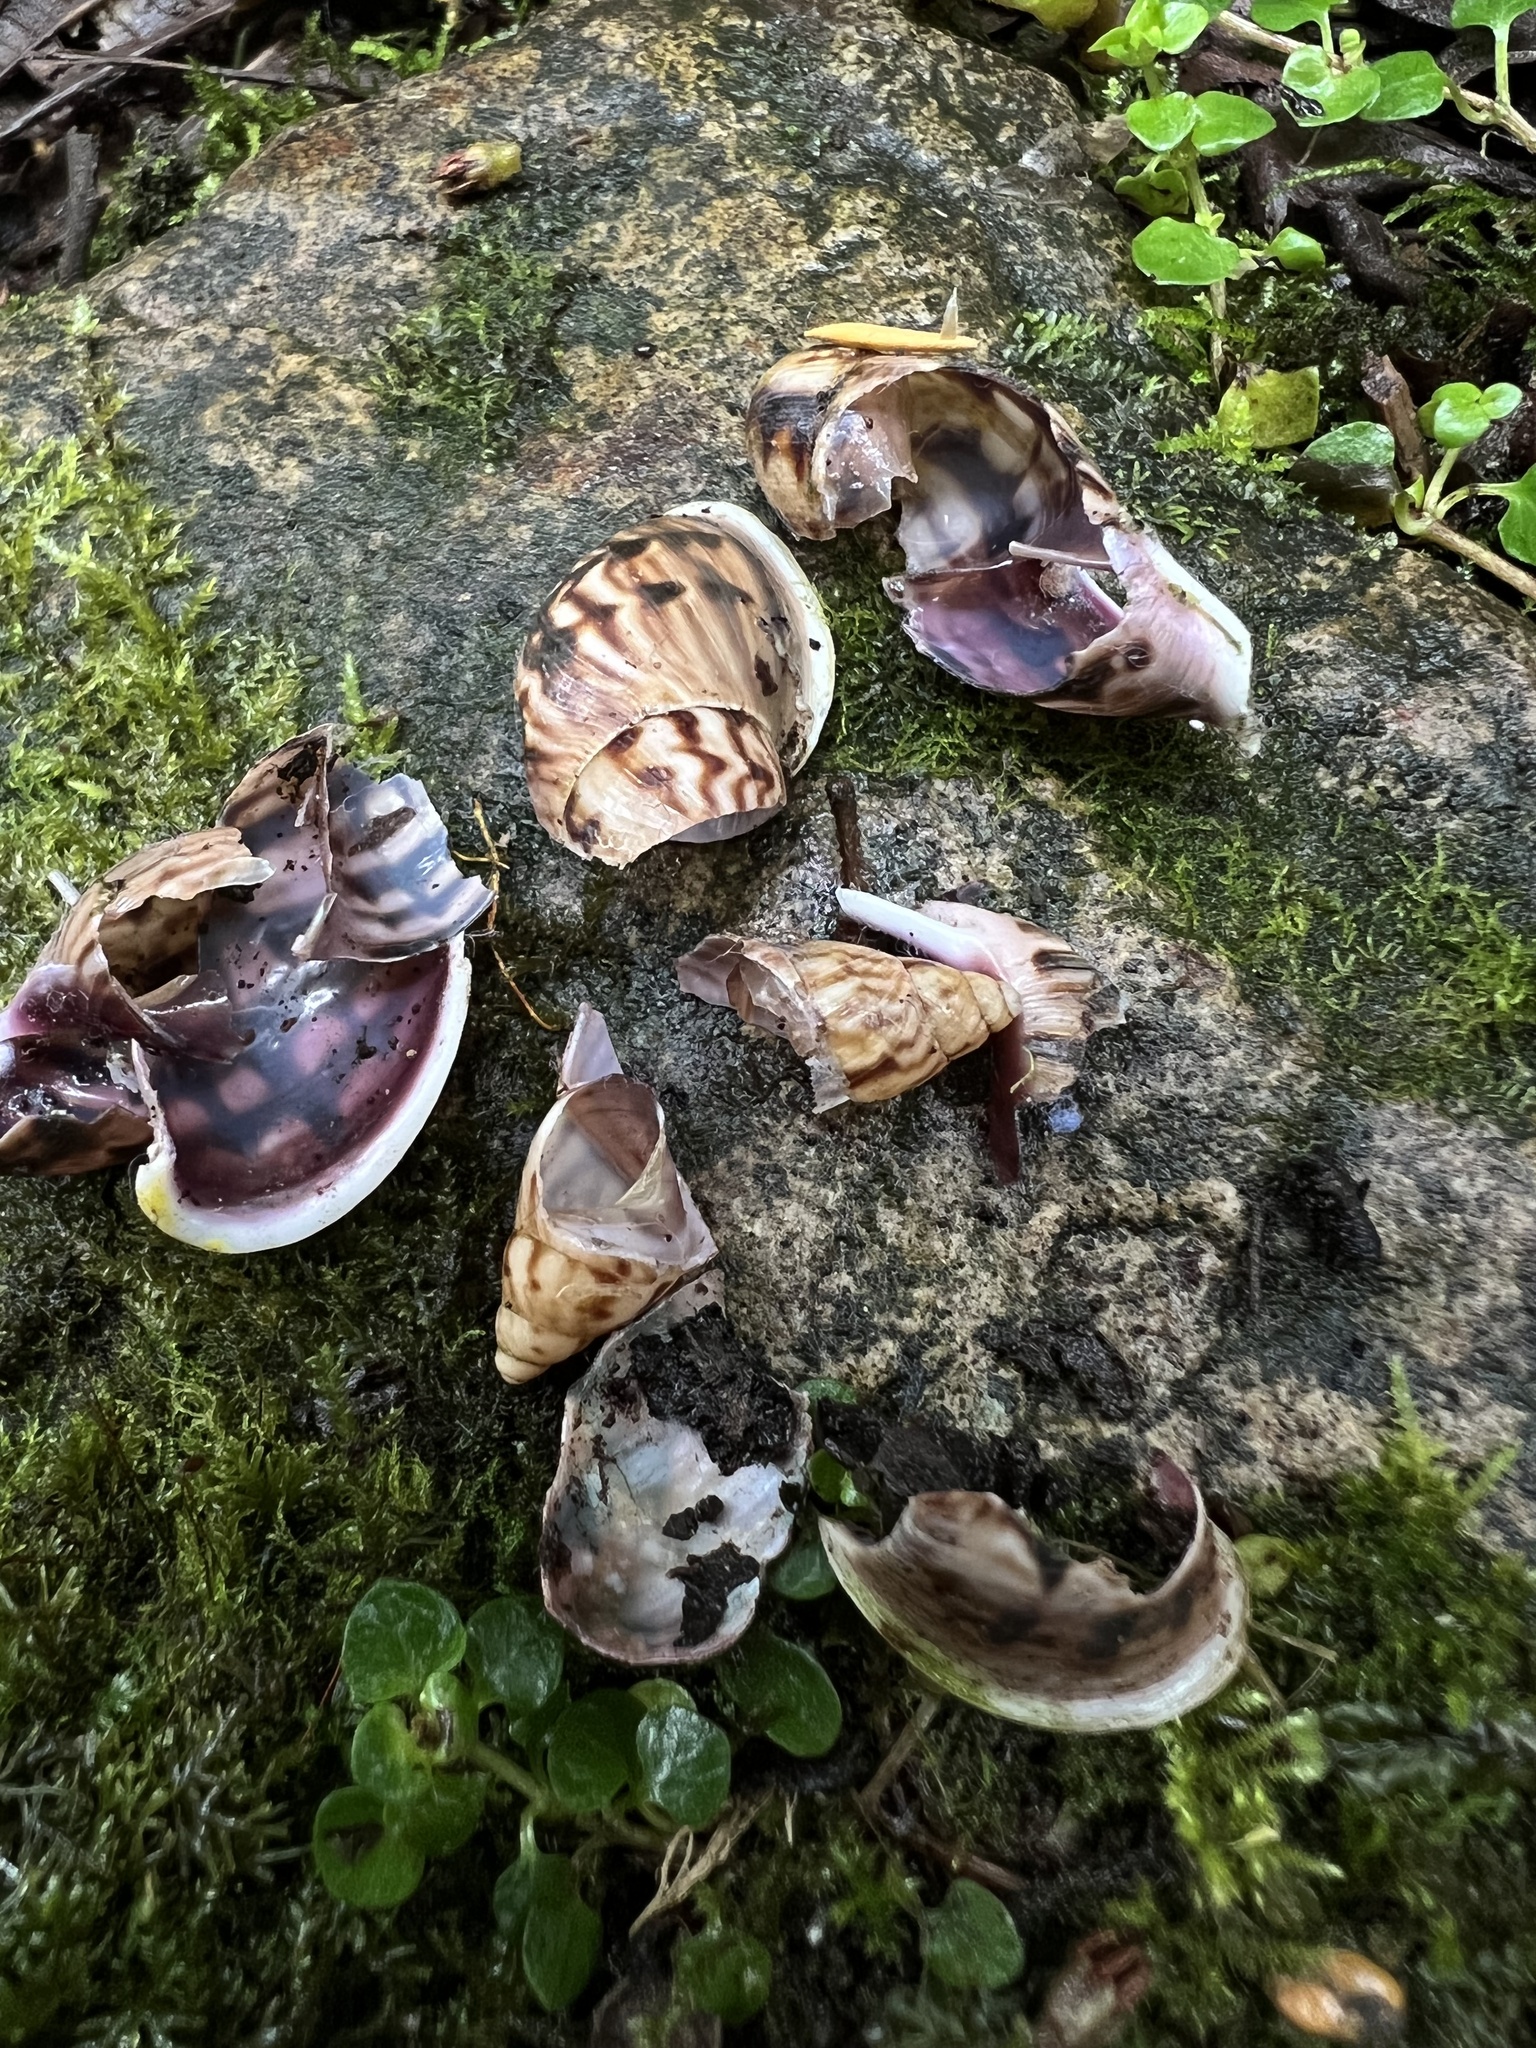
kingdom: Animalia
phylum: Mollusca
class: Gastropoda
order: Stylommatophora
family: Bulimulidae
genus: Drymaeus
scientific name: Drymaeus smithii
